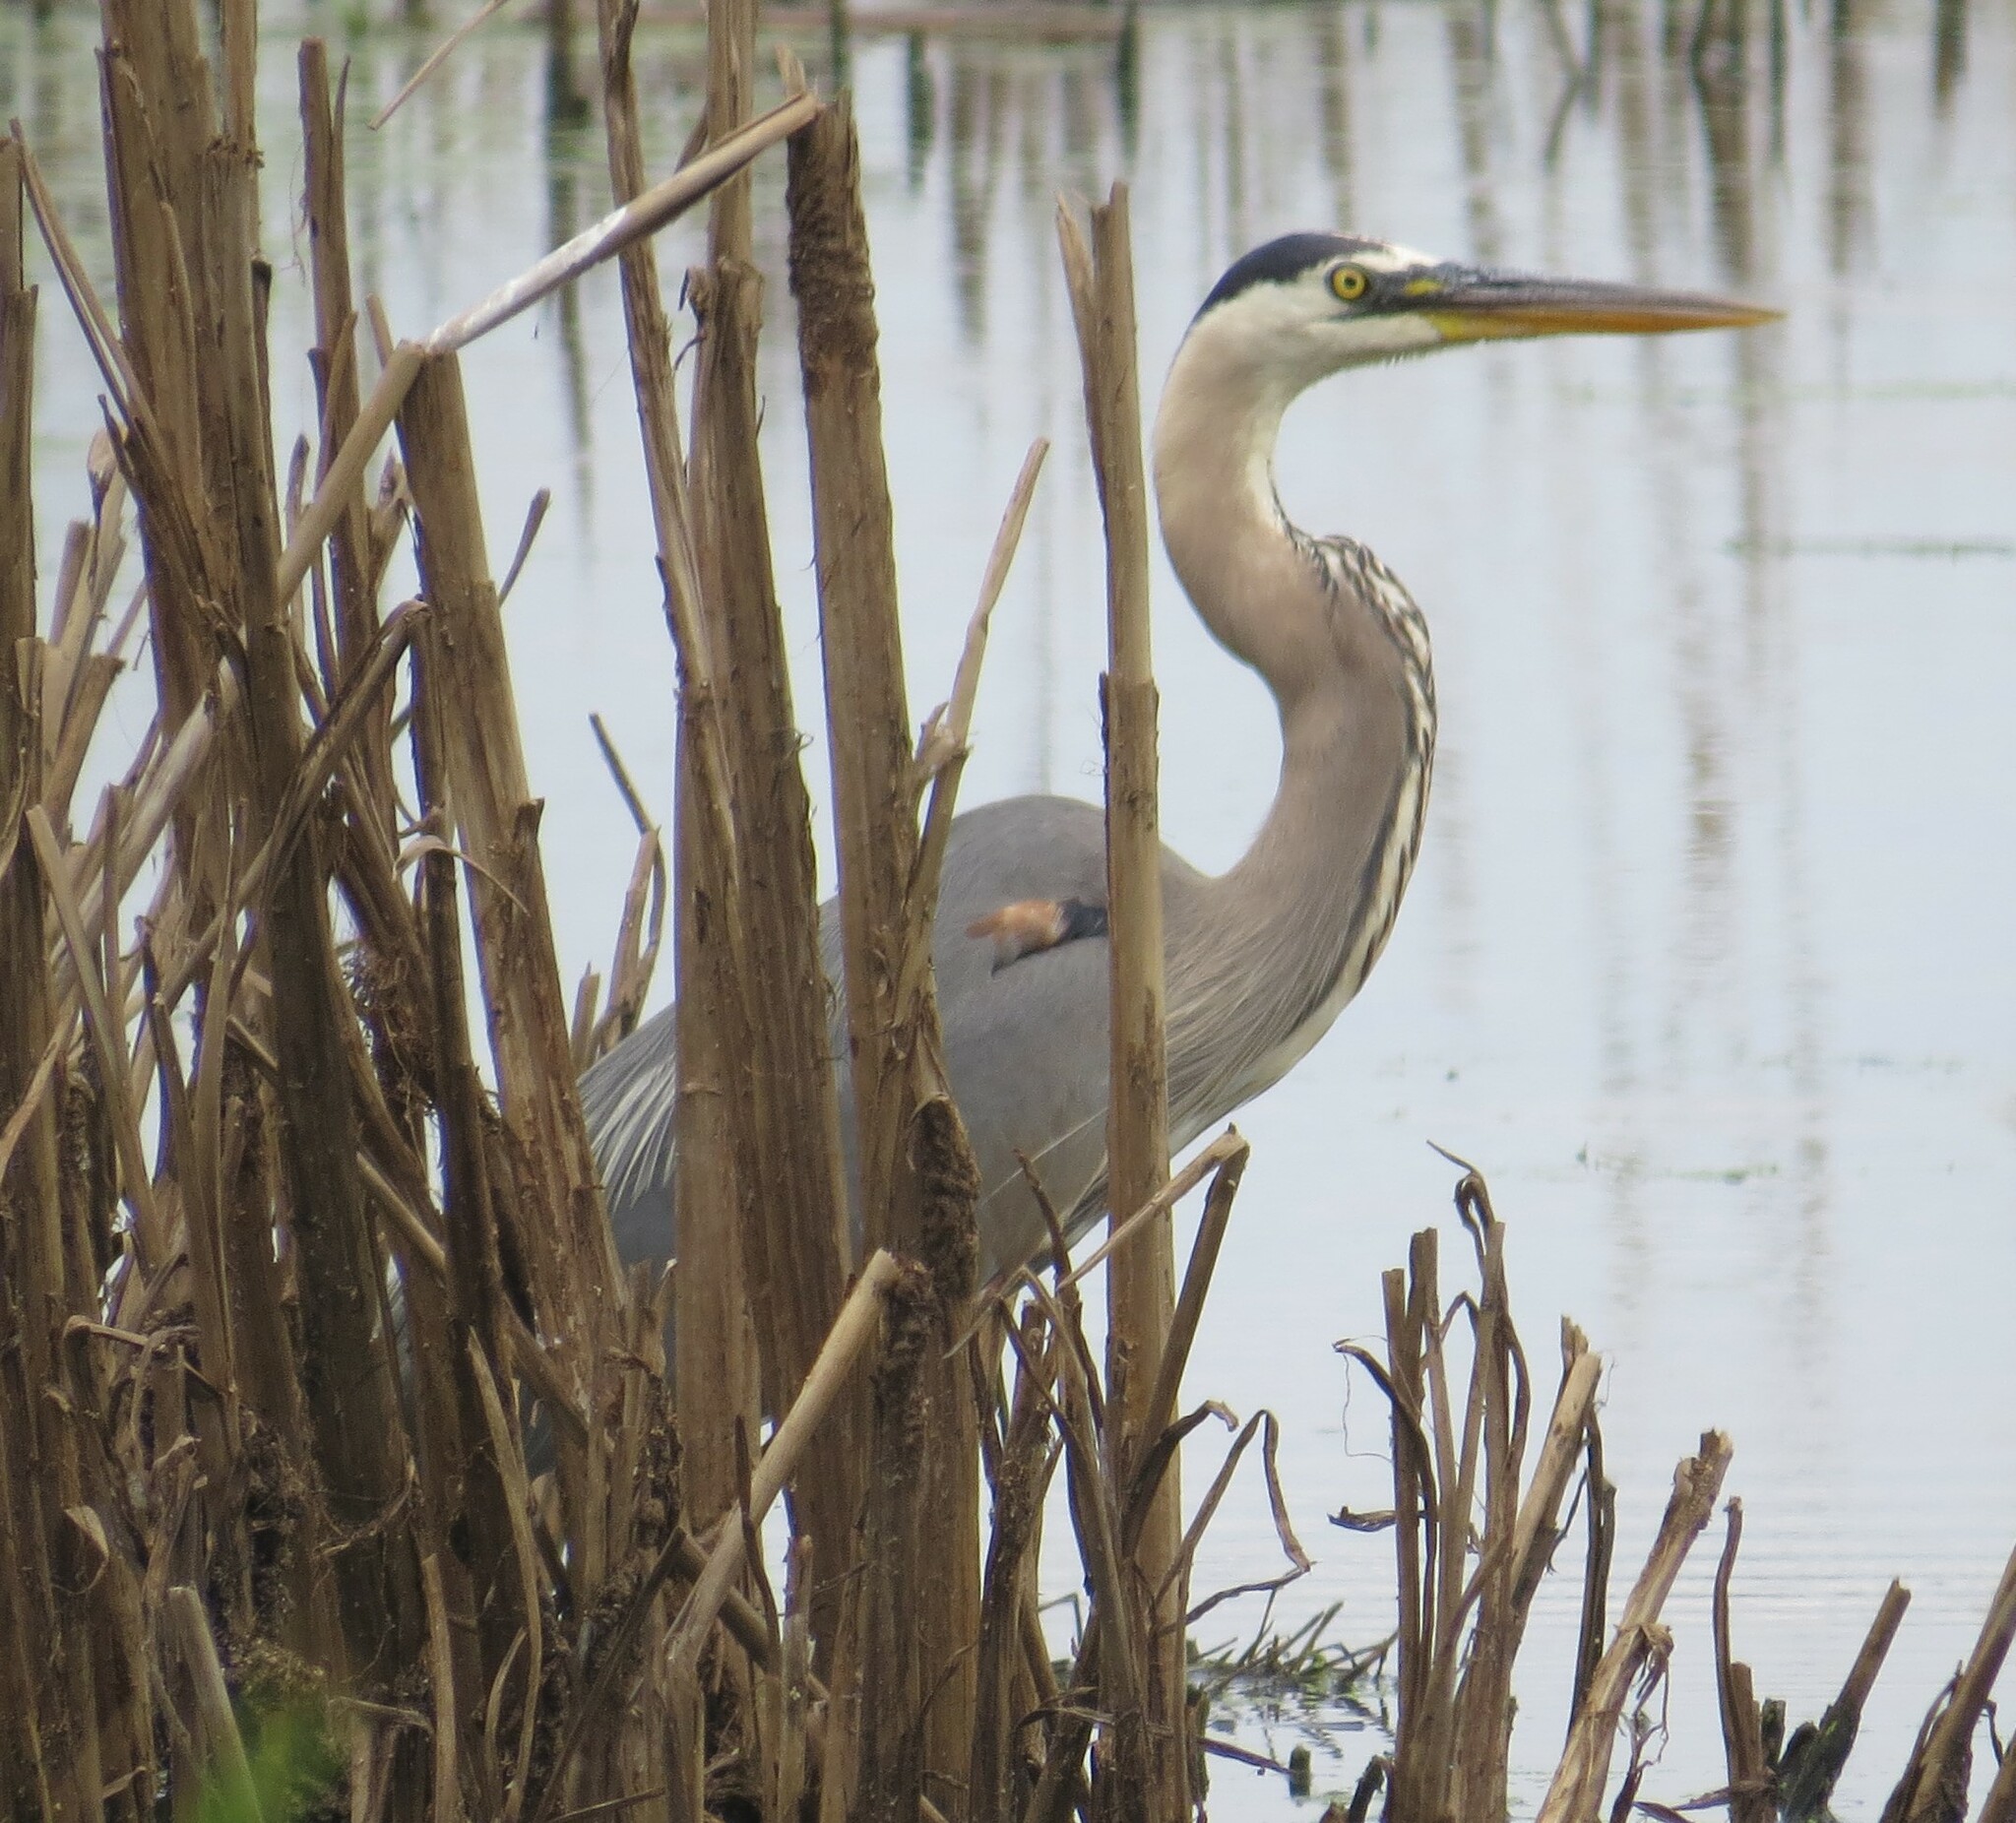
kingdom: Animalia
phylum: Chordata
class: Aves
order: Pelecaniformes
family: Ardeidae
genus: Ardea
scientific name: Ardea herodias
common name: Great blue heron
